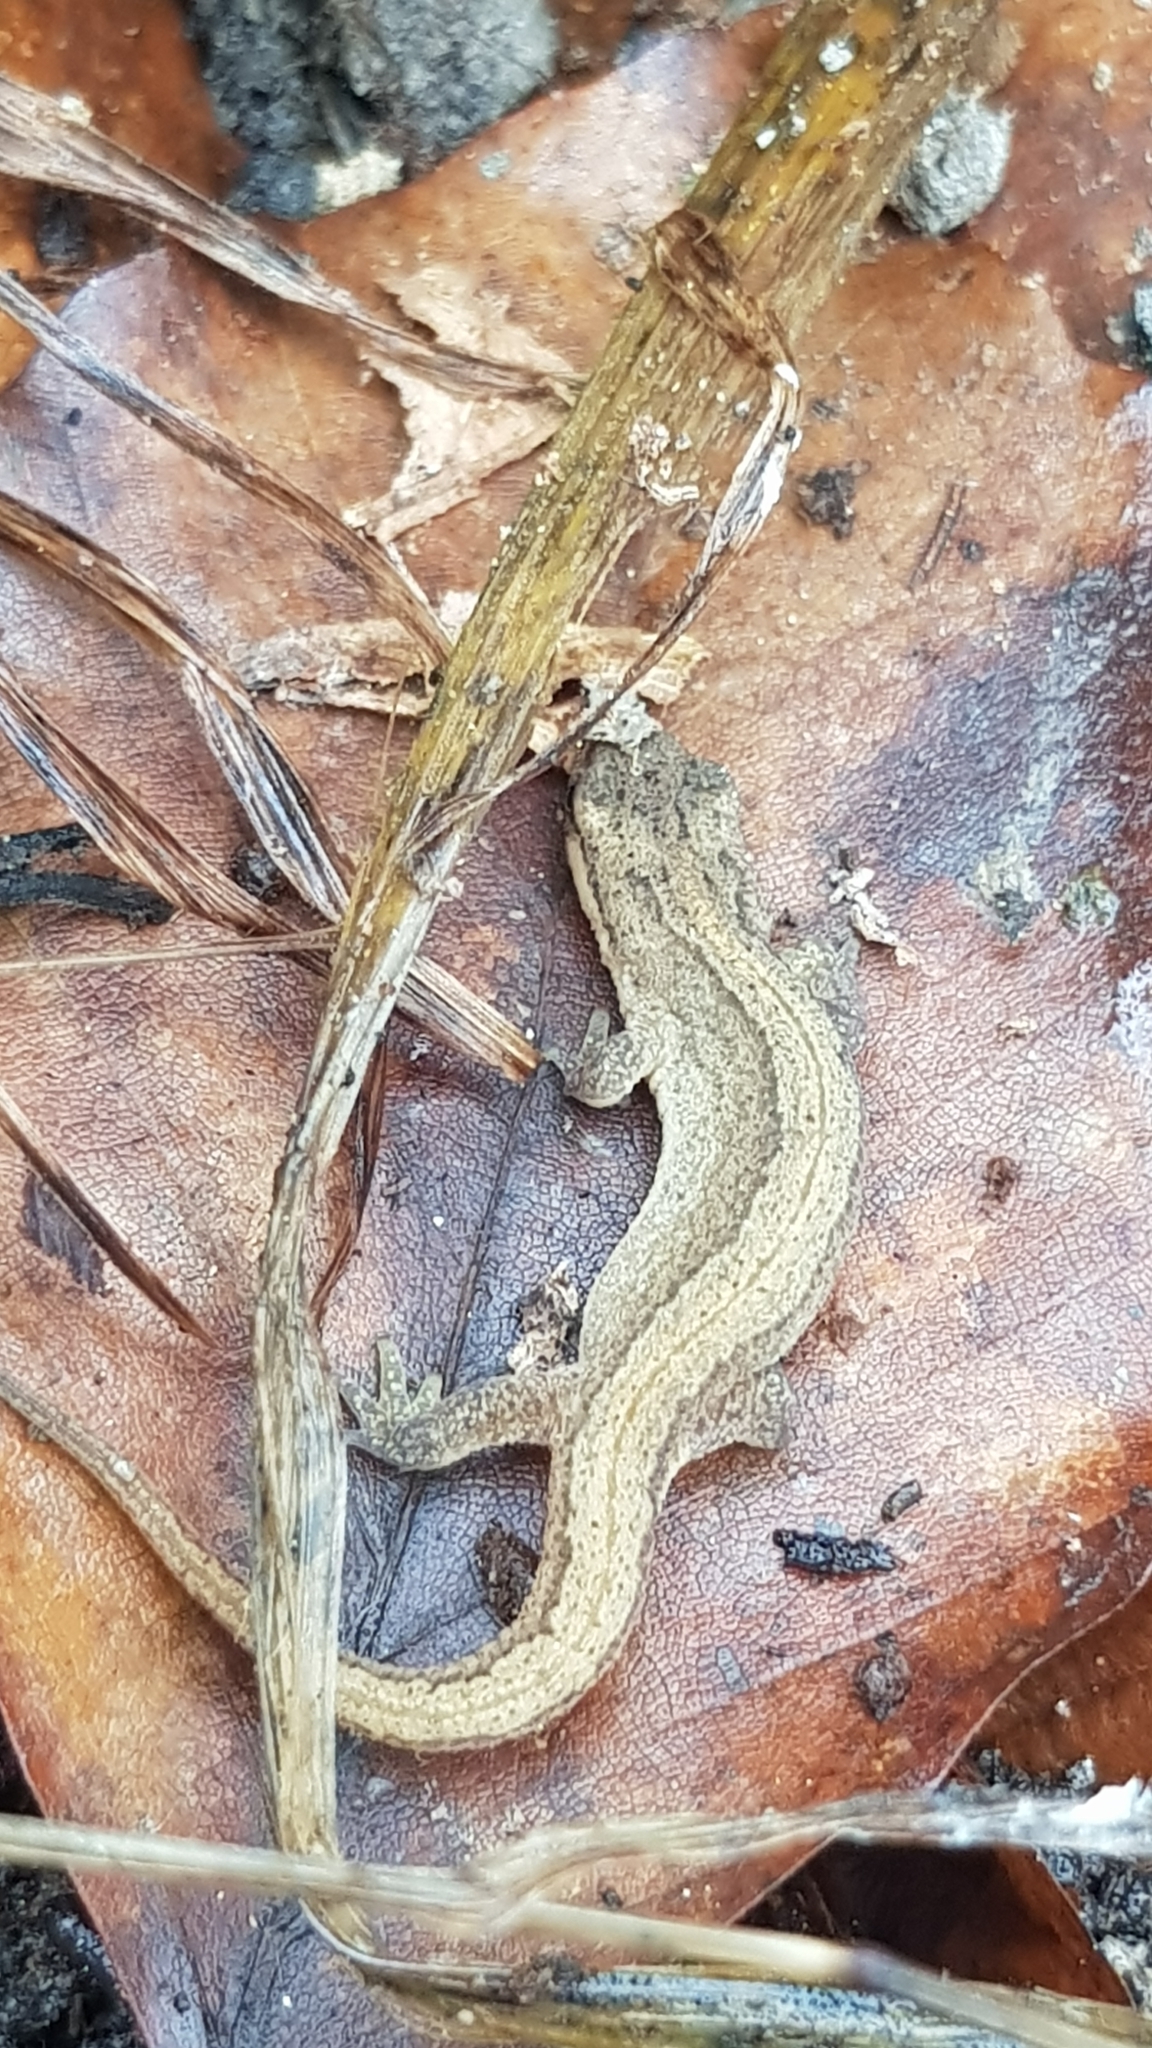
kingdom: Animalia
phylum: Chordata
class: Amphibia
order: Caudata
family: Salamandridae
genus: Lissotriton
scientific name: Lissotriton vulgaris
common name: Smooth newt
